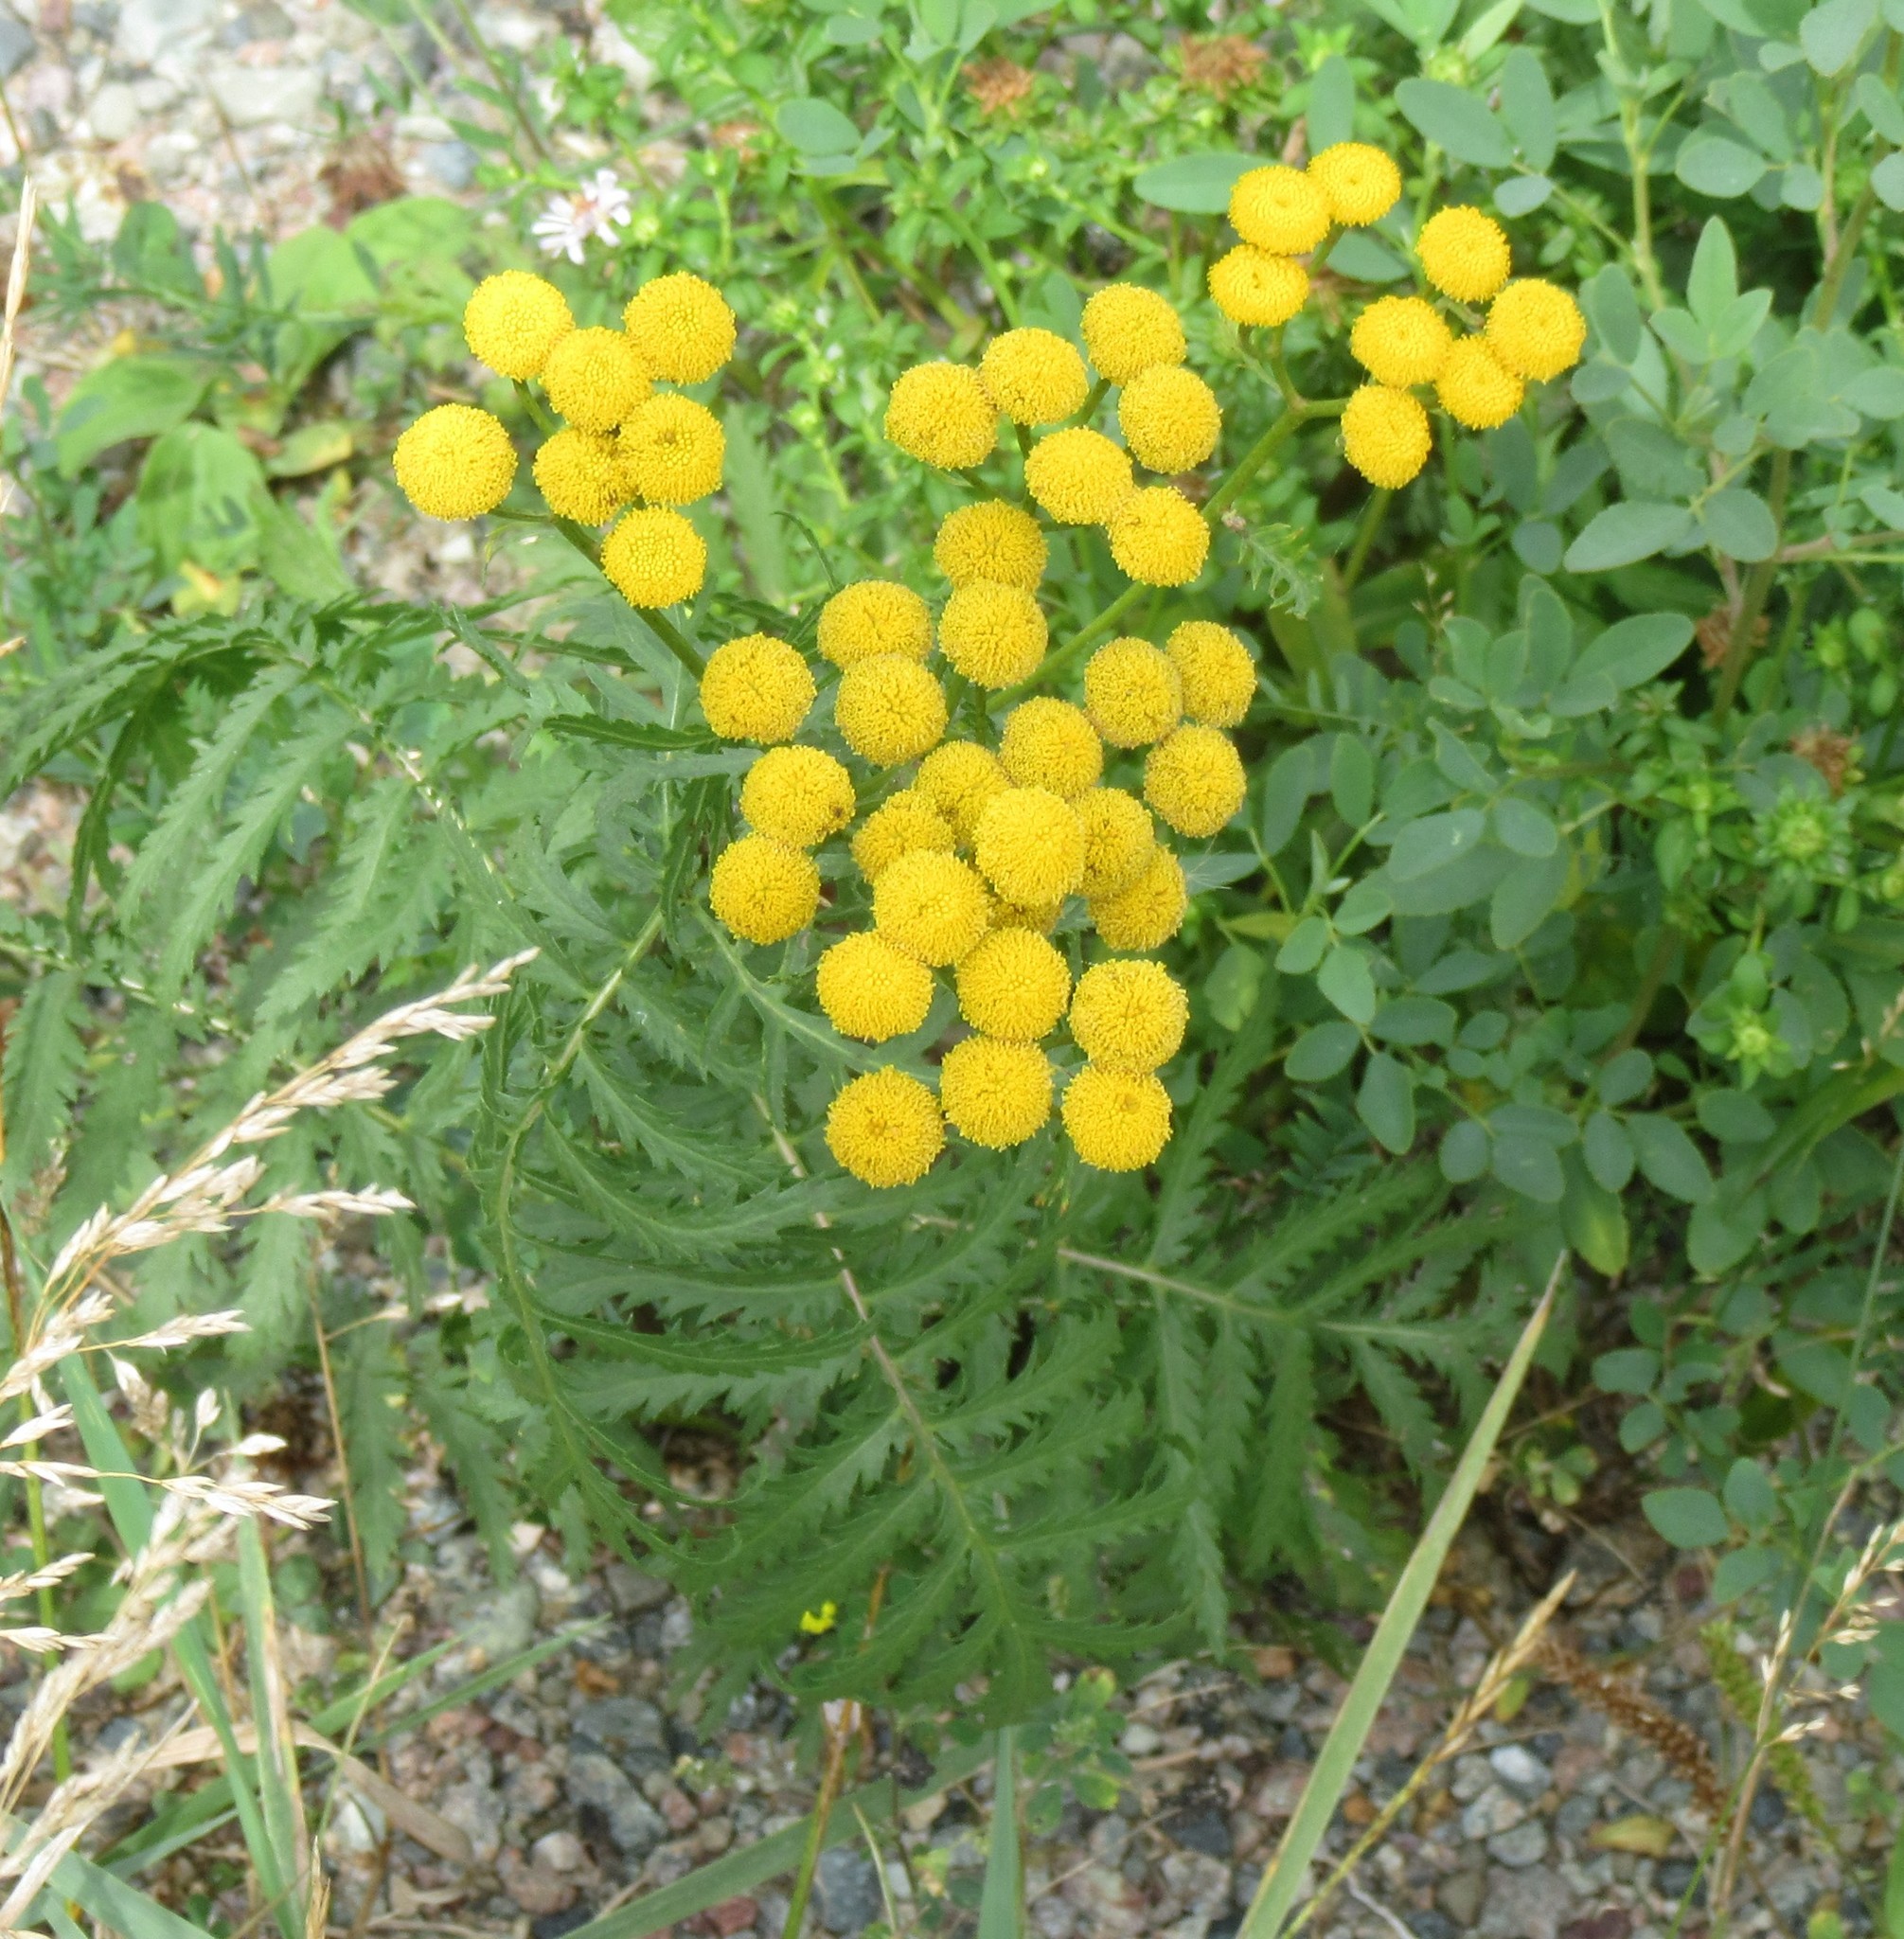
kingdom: Plantae
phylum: Tracheophyta
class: Magnoliopsida
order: Asterales
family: Asteraceae
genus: Tanacetum
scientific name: Tanacetum vulgare
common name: Common tansy
